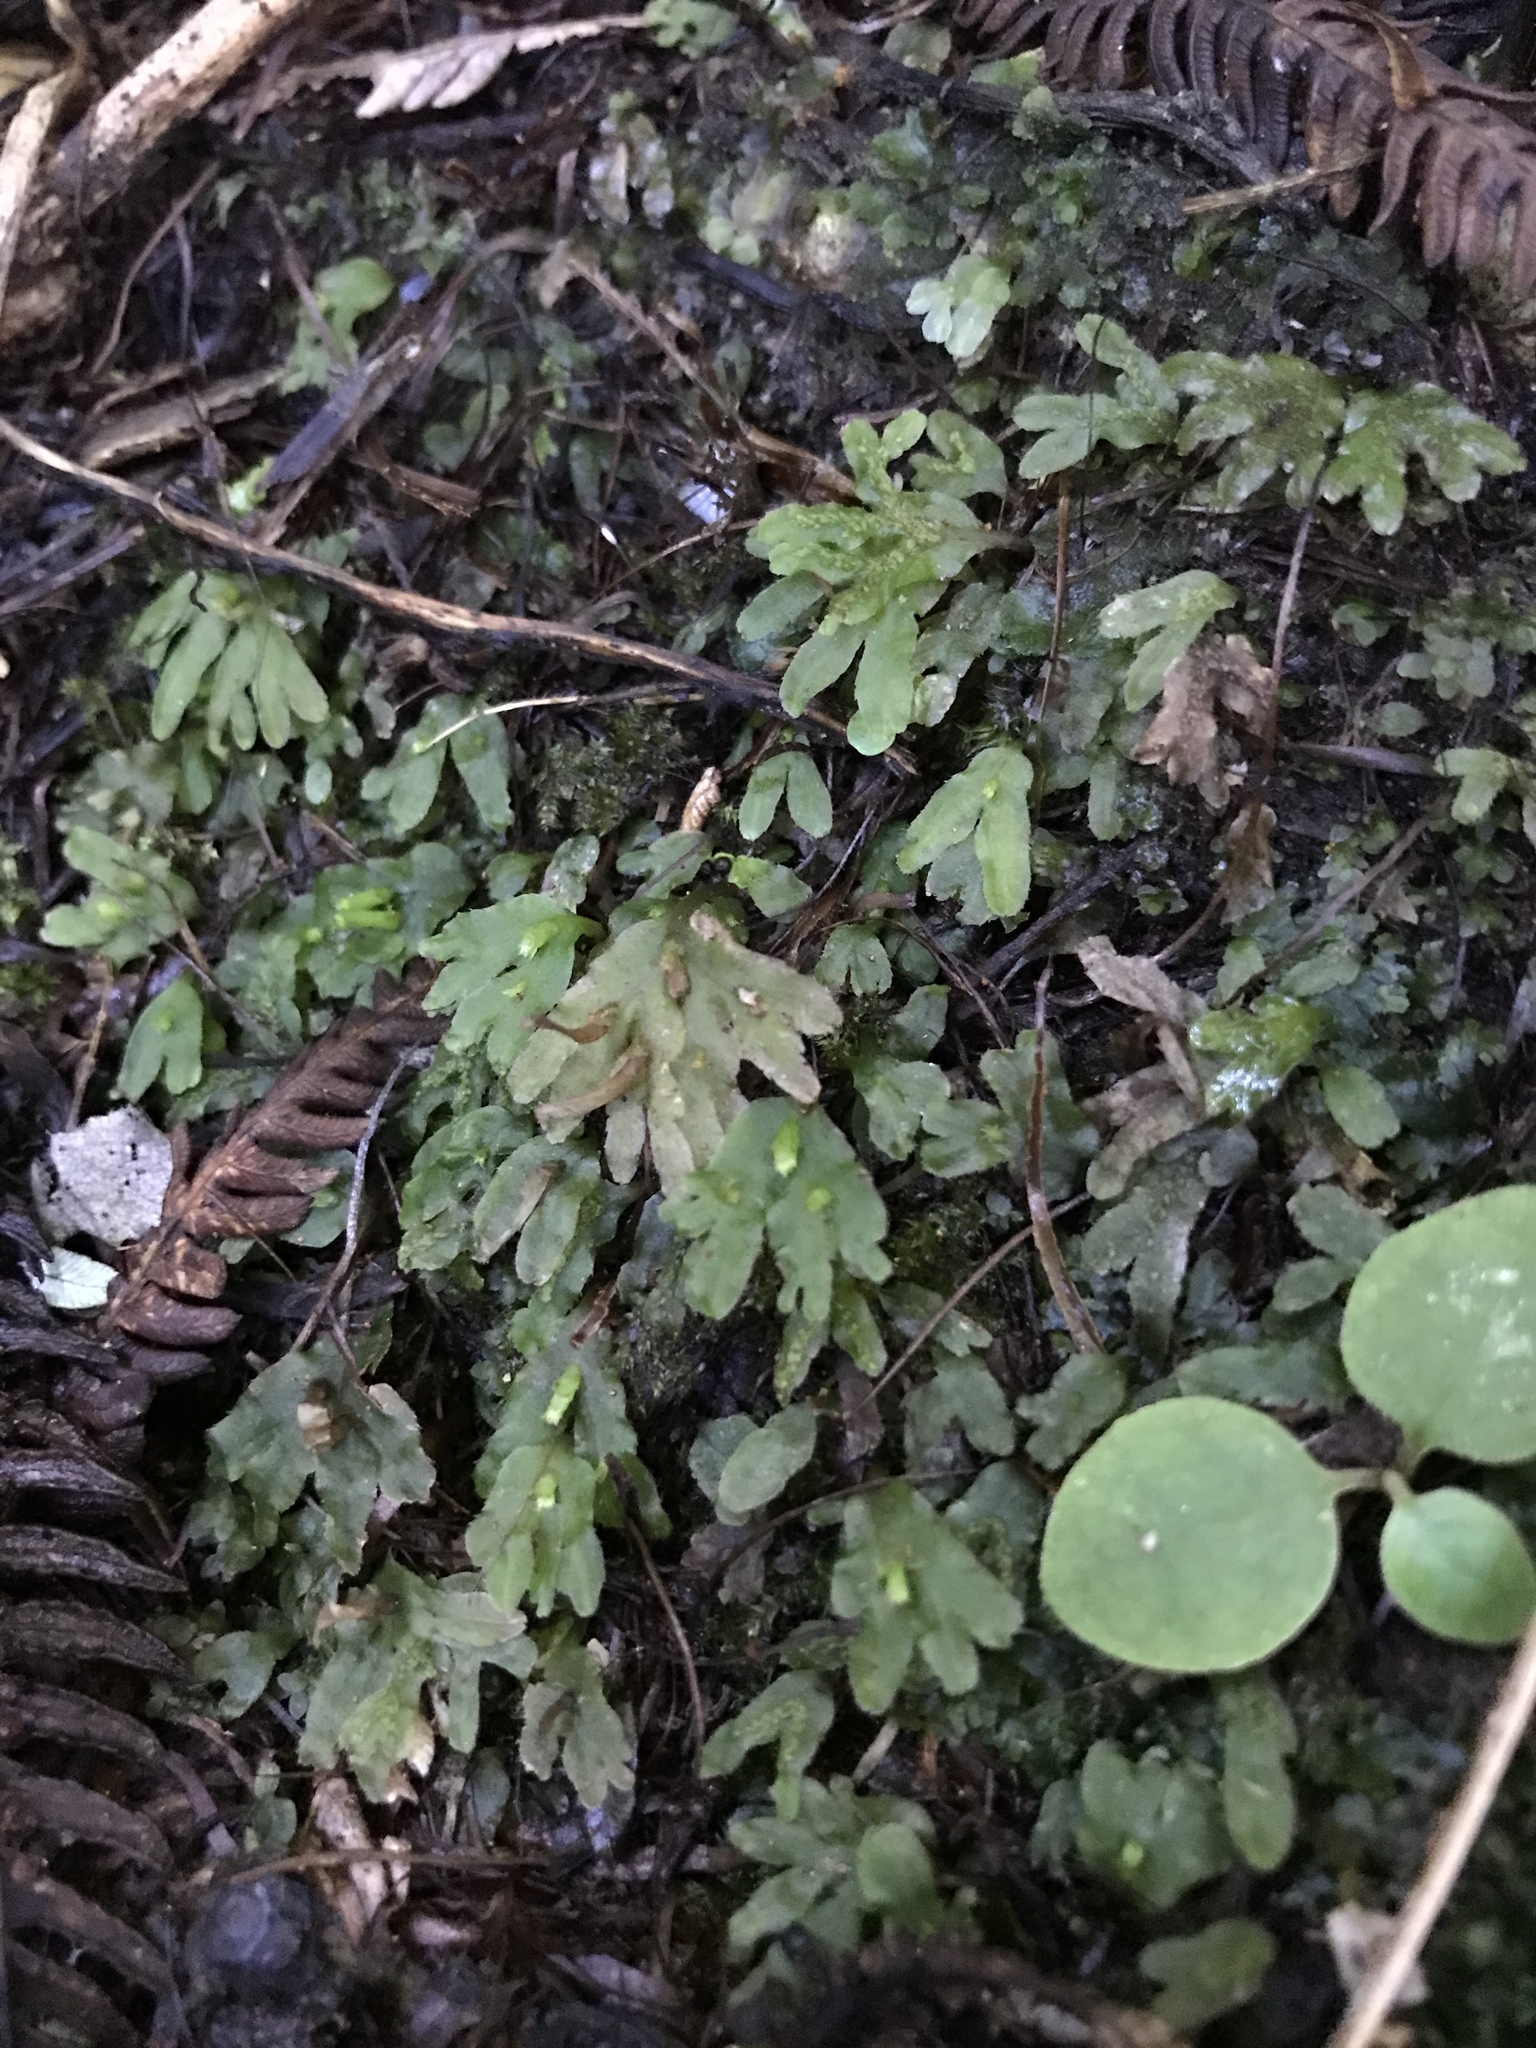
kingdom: Plantae
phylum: Marchantiophyta
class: Jungermanniopsida
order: Pallaviciniales
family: Pallaviciniaceae
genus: Symphyogyna
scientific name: Symphyogyna hymenophyllum
